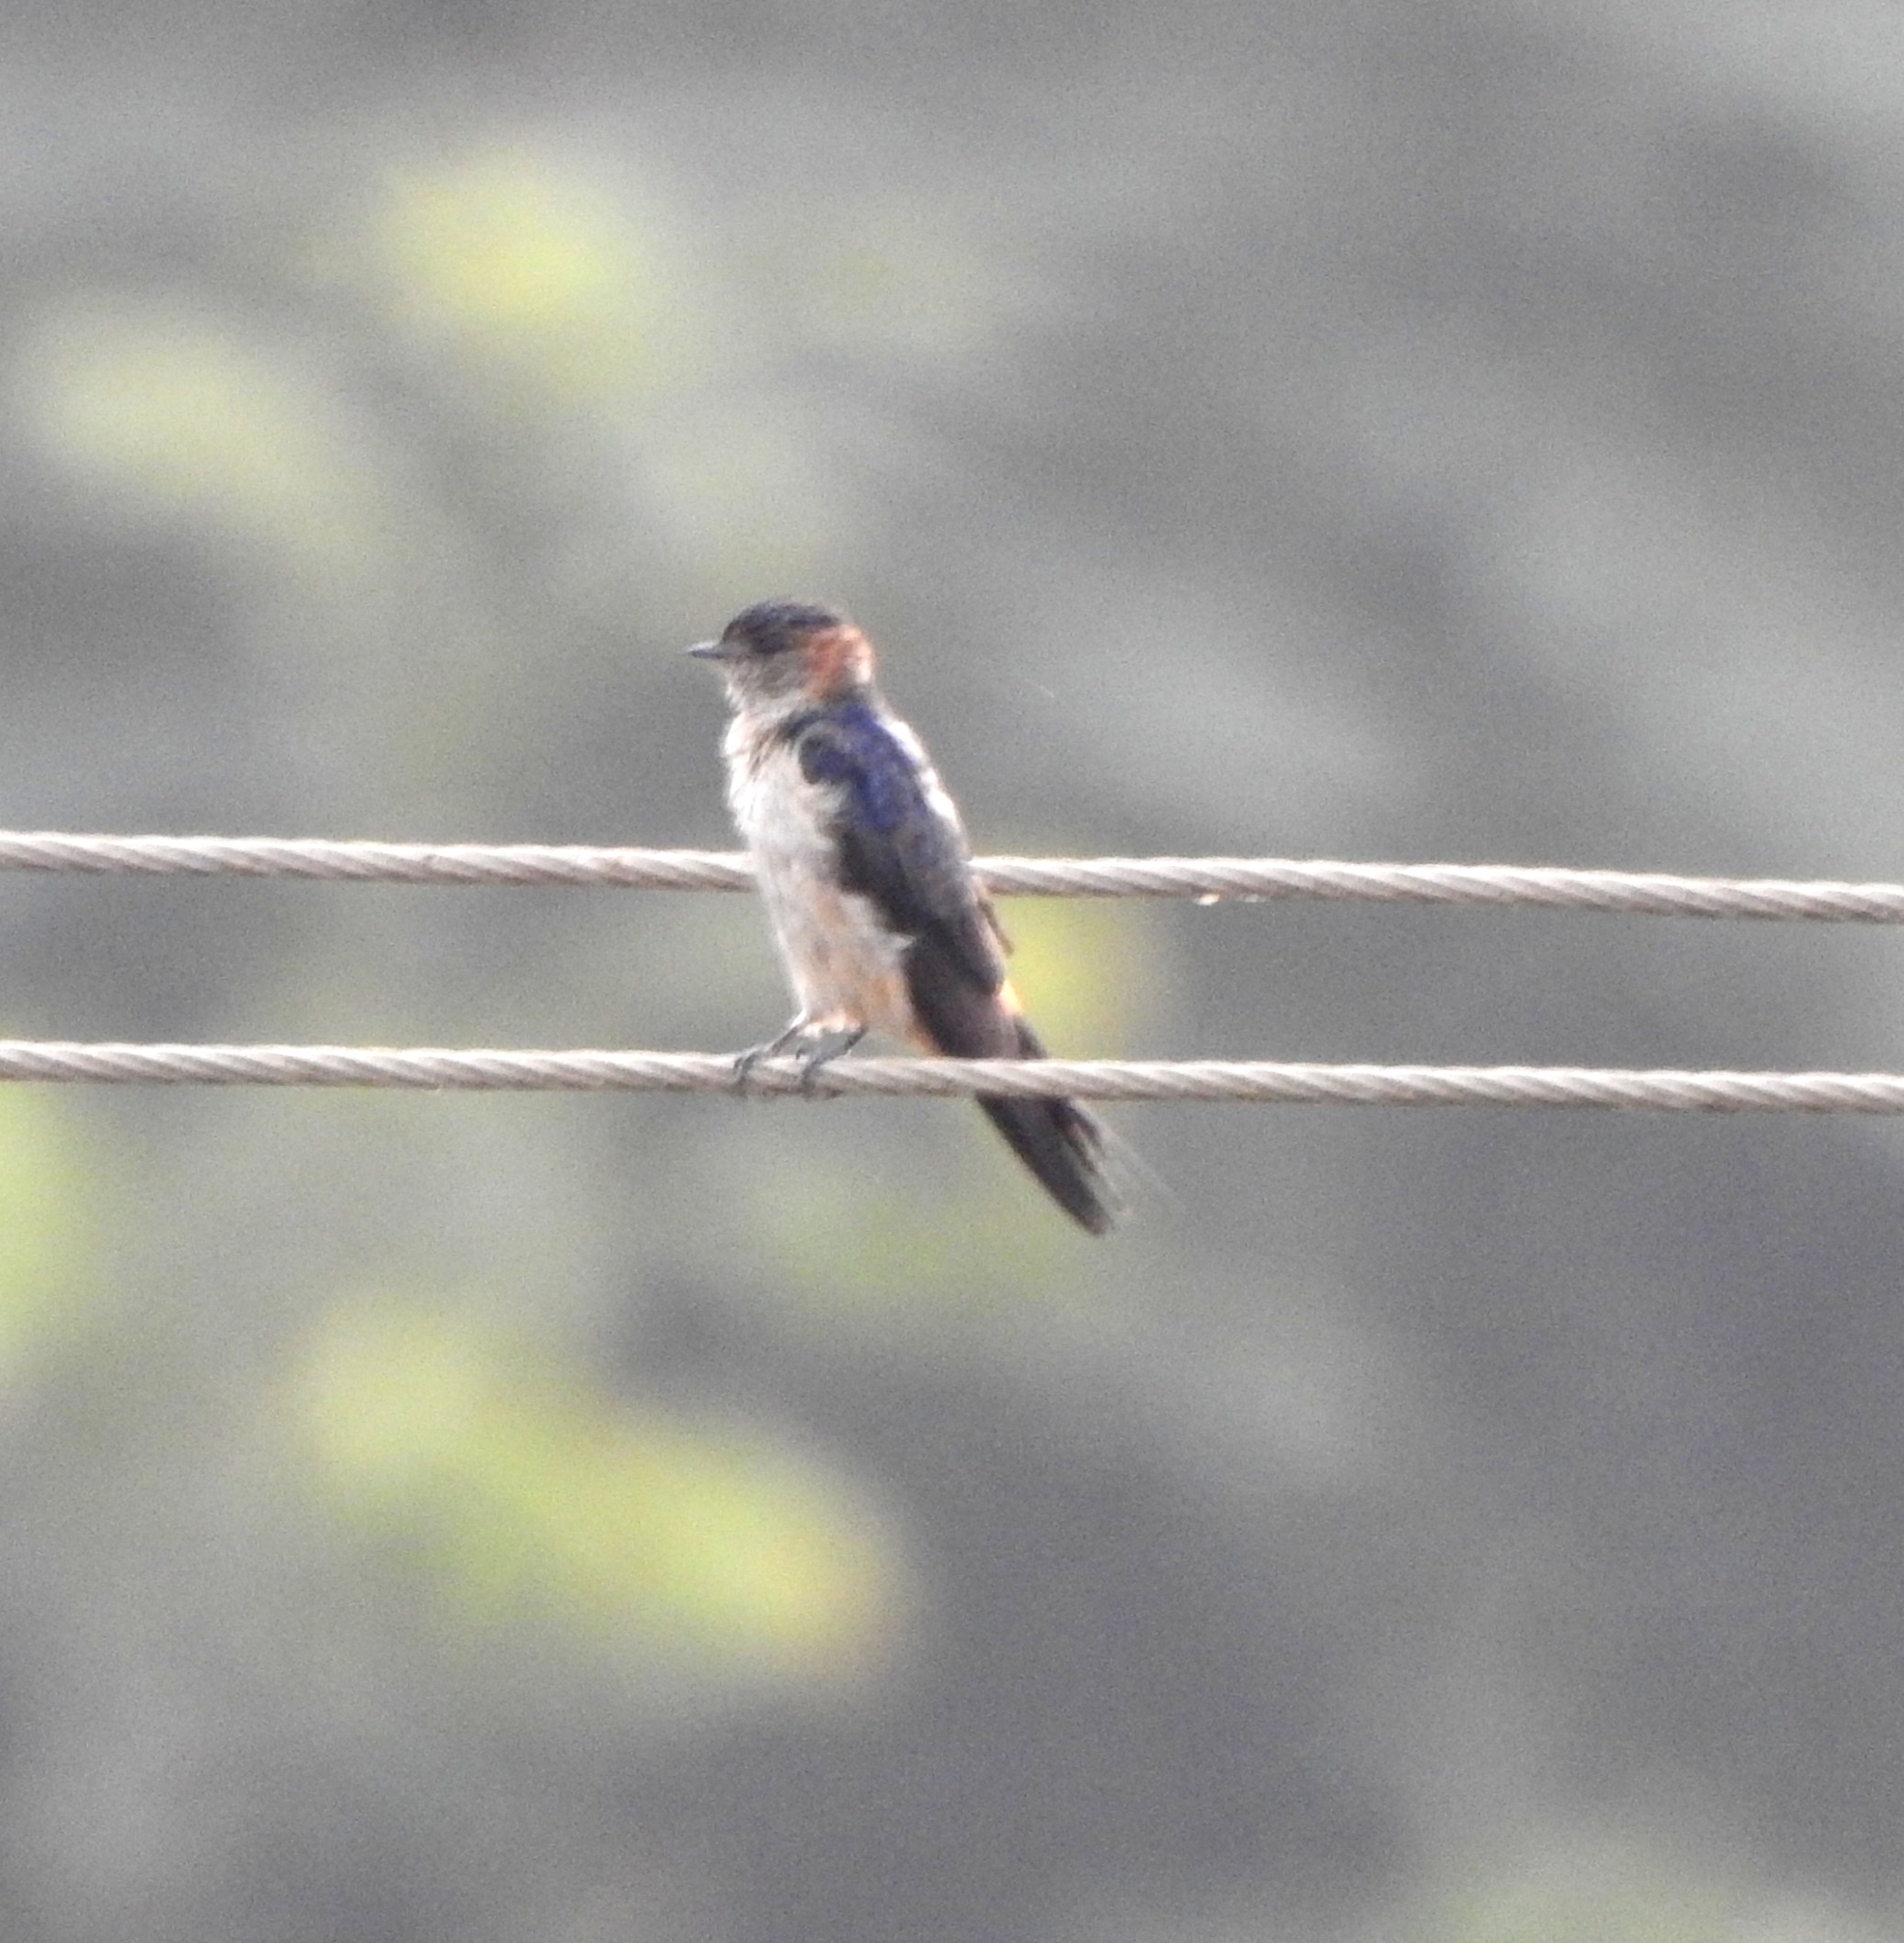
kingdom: Animalia
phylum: Chordata
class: Aves
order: Passeriformes
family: Hirundinidae
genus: Cecropis
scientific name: Cecropis daurica
